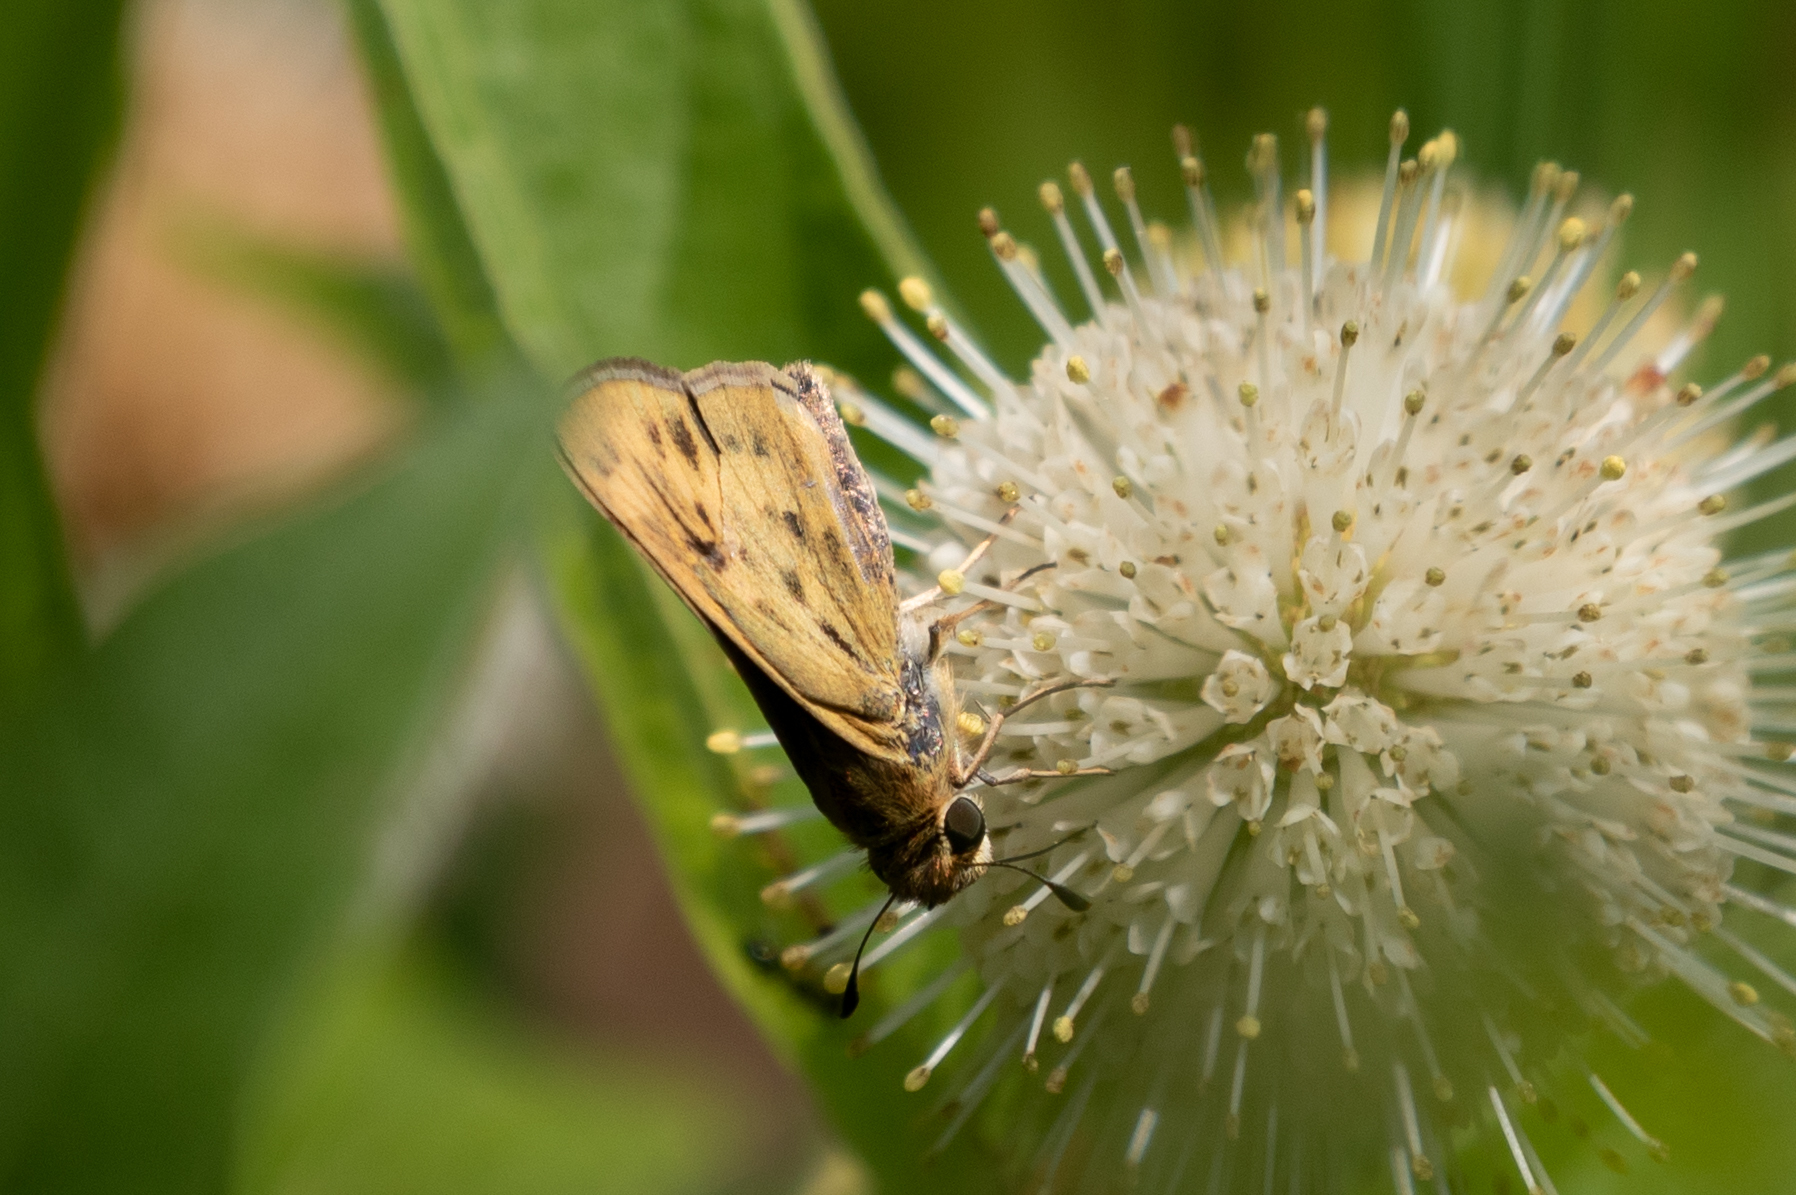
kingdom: Animalia
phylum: Arthropoda
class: Insecta
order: Lepidoptera
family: Hesperiidae
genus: Hylephila
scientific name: Hylephila phyleus
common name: Fiery skipper
